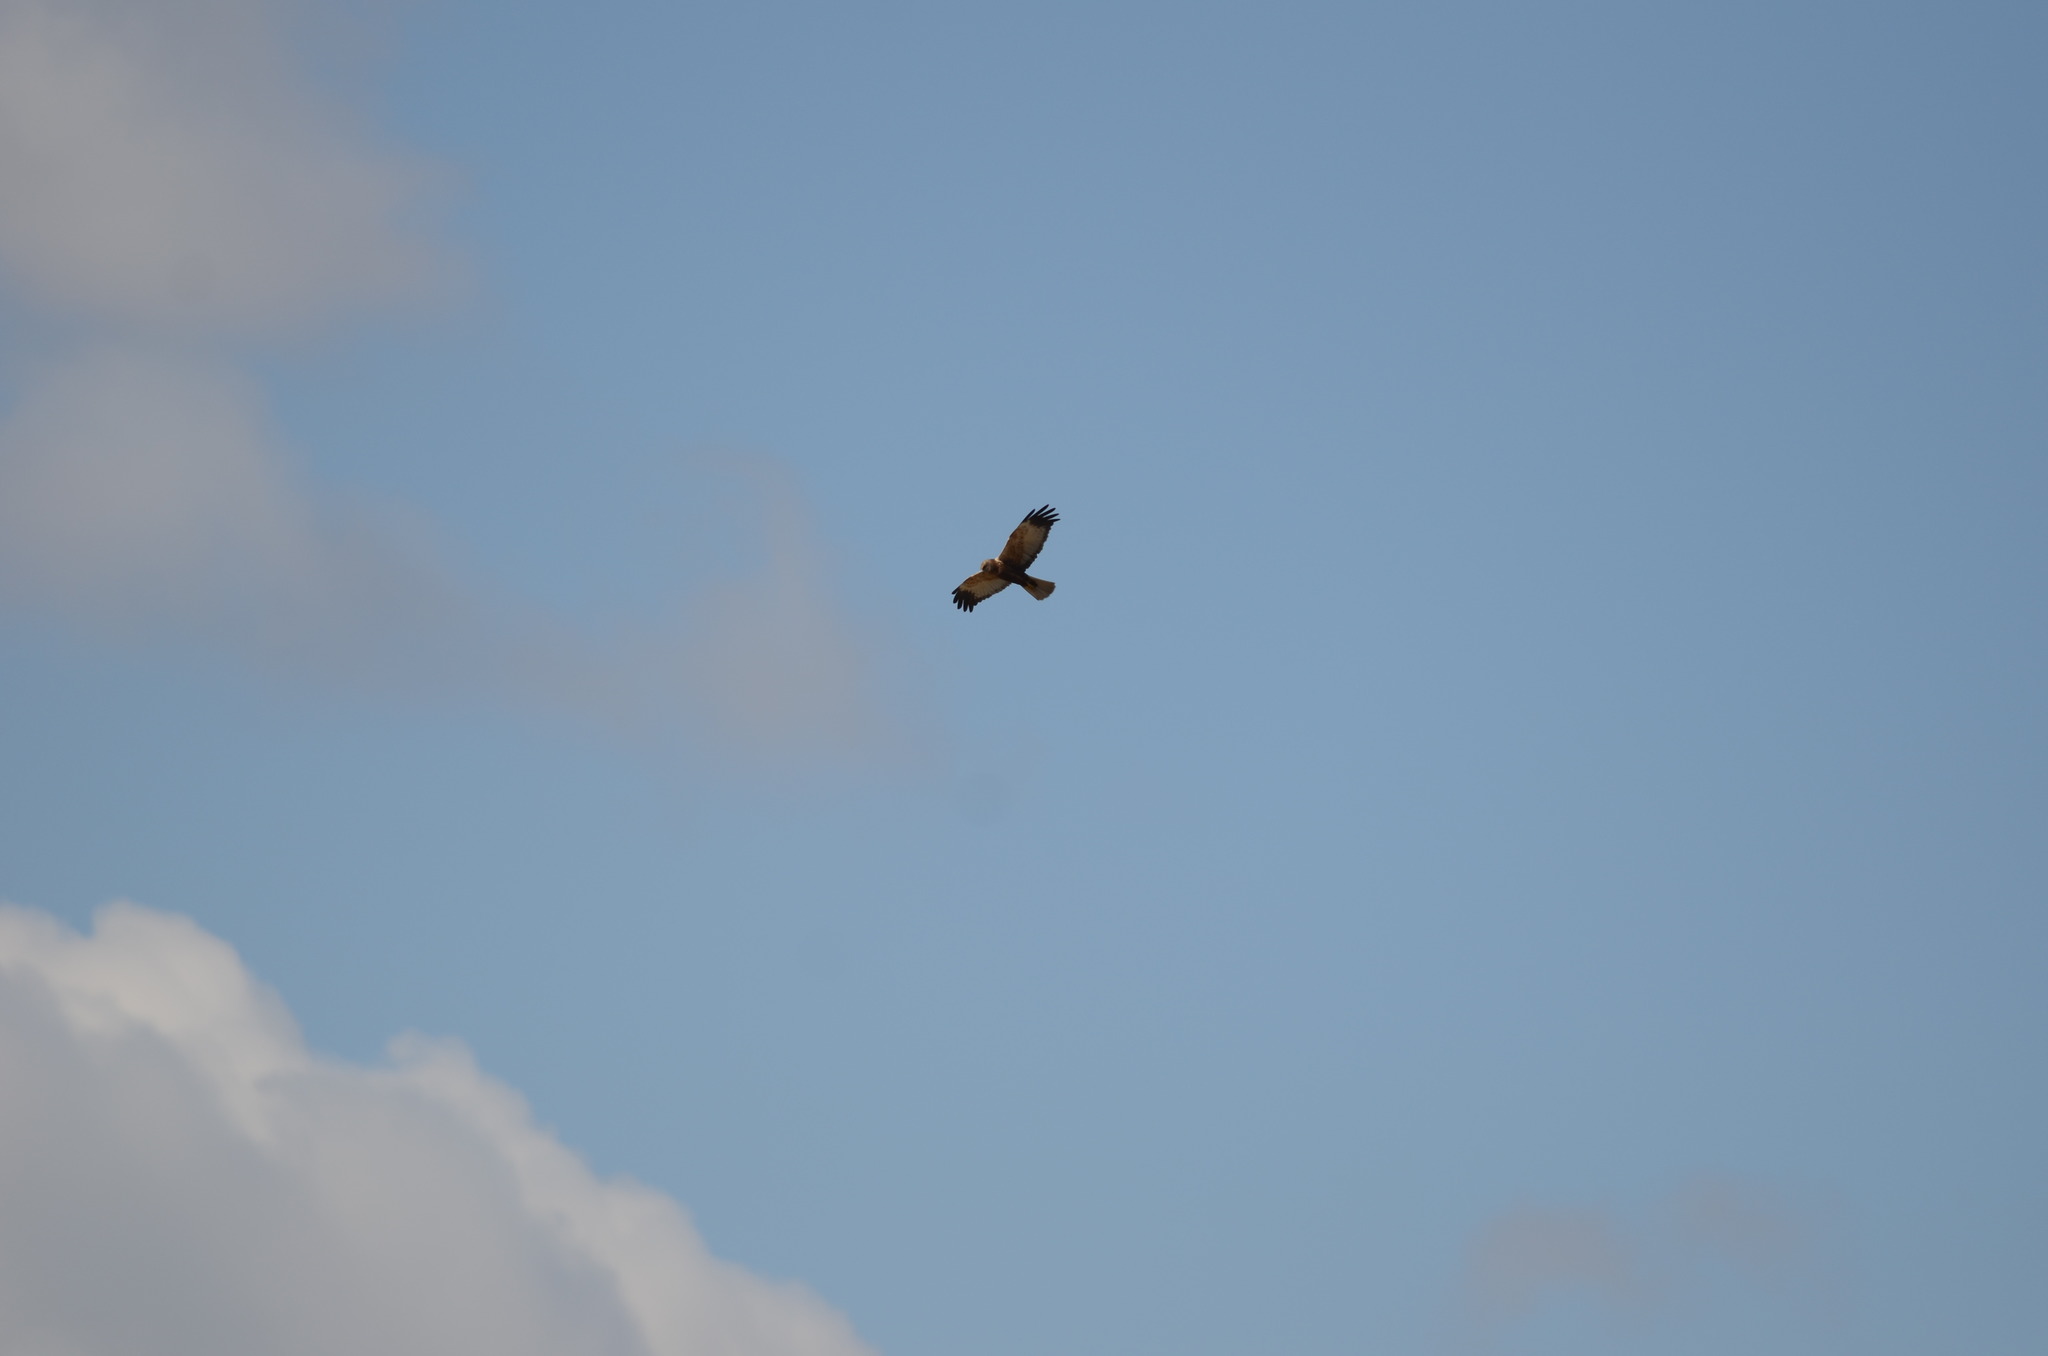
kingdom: Animalia
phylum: Chordata
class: Aves
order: Accipitriformes
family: Accipitridae
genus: Circus
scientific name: Circus aeruginosus
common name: Western marsh harrier
